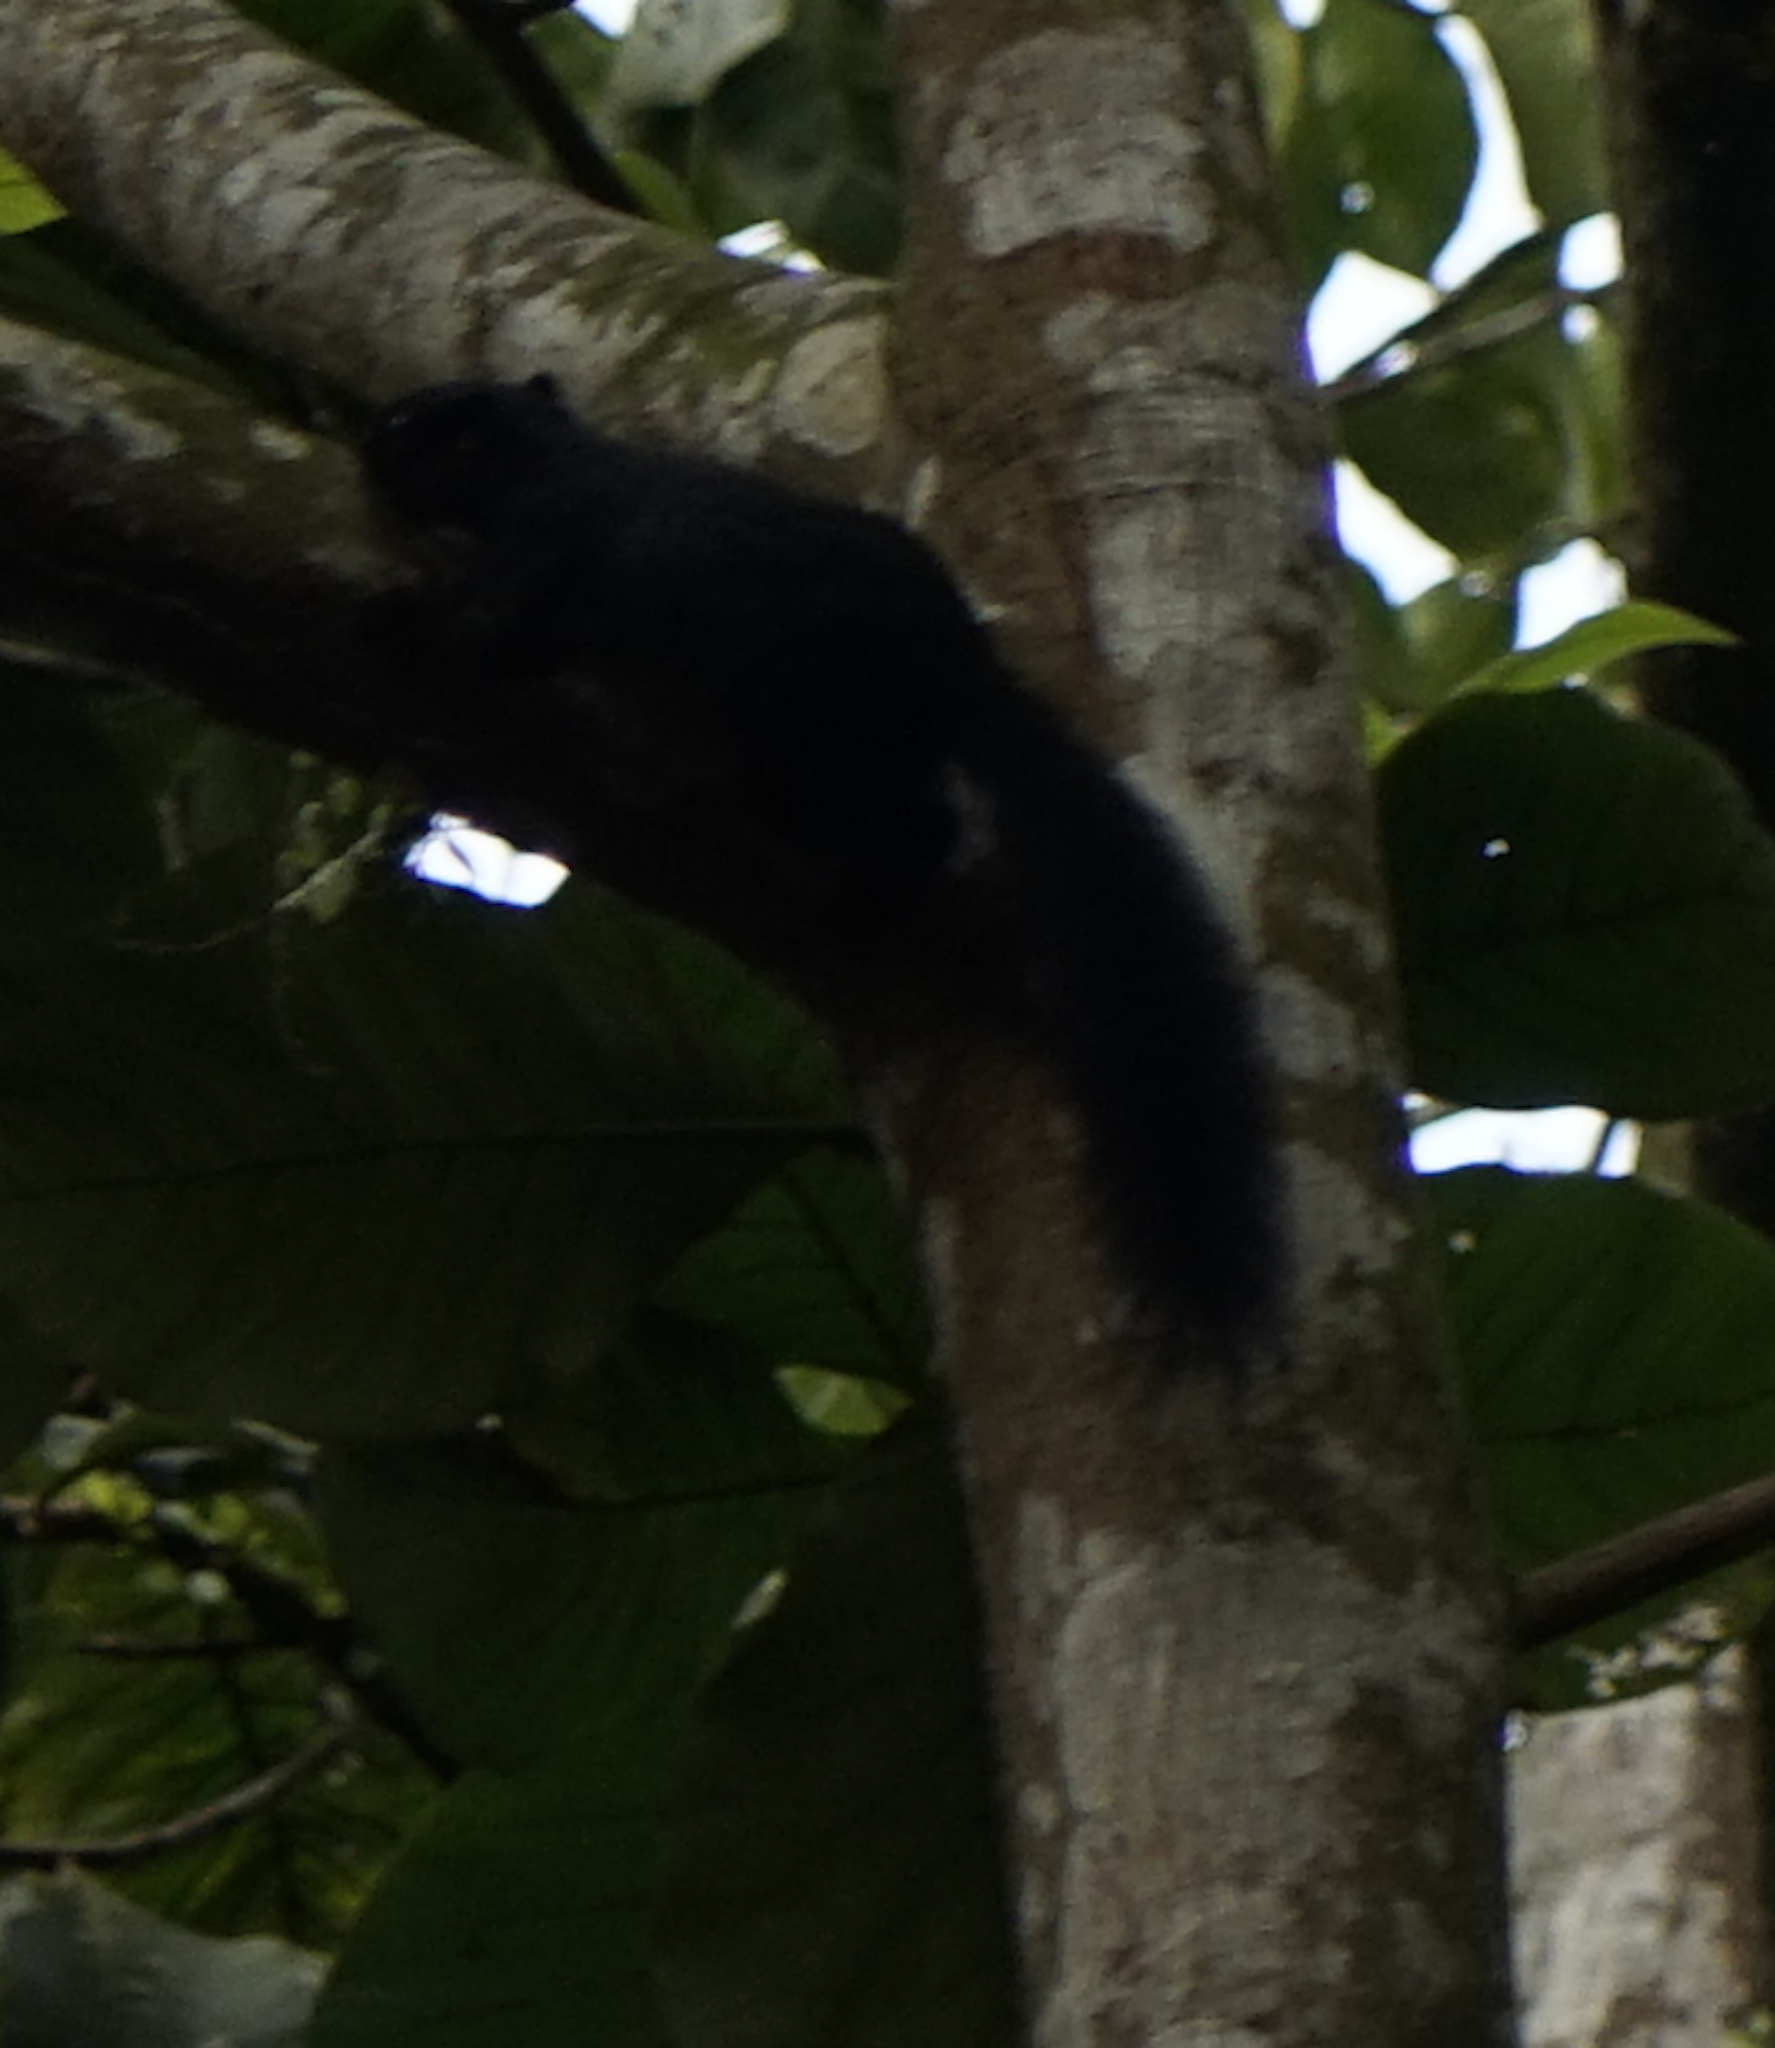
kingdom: Animalia
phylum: Chordata
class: Mammalia
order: Rodentia
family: Sciuridae
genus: Callosciurus
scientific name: Callosciurus prevostii
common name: Prevost's squirrel
